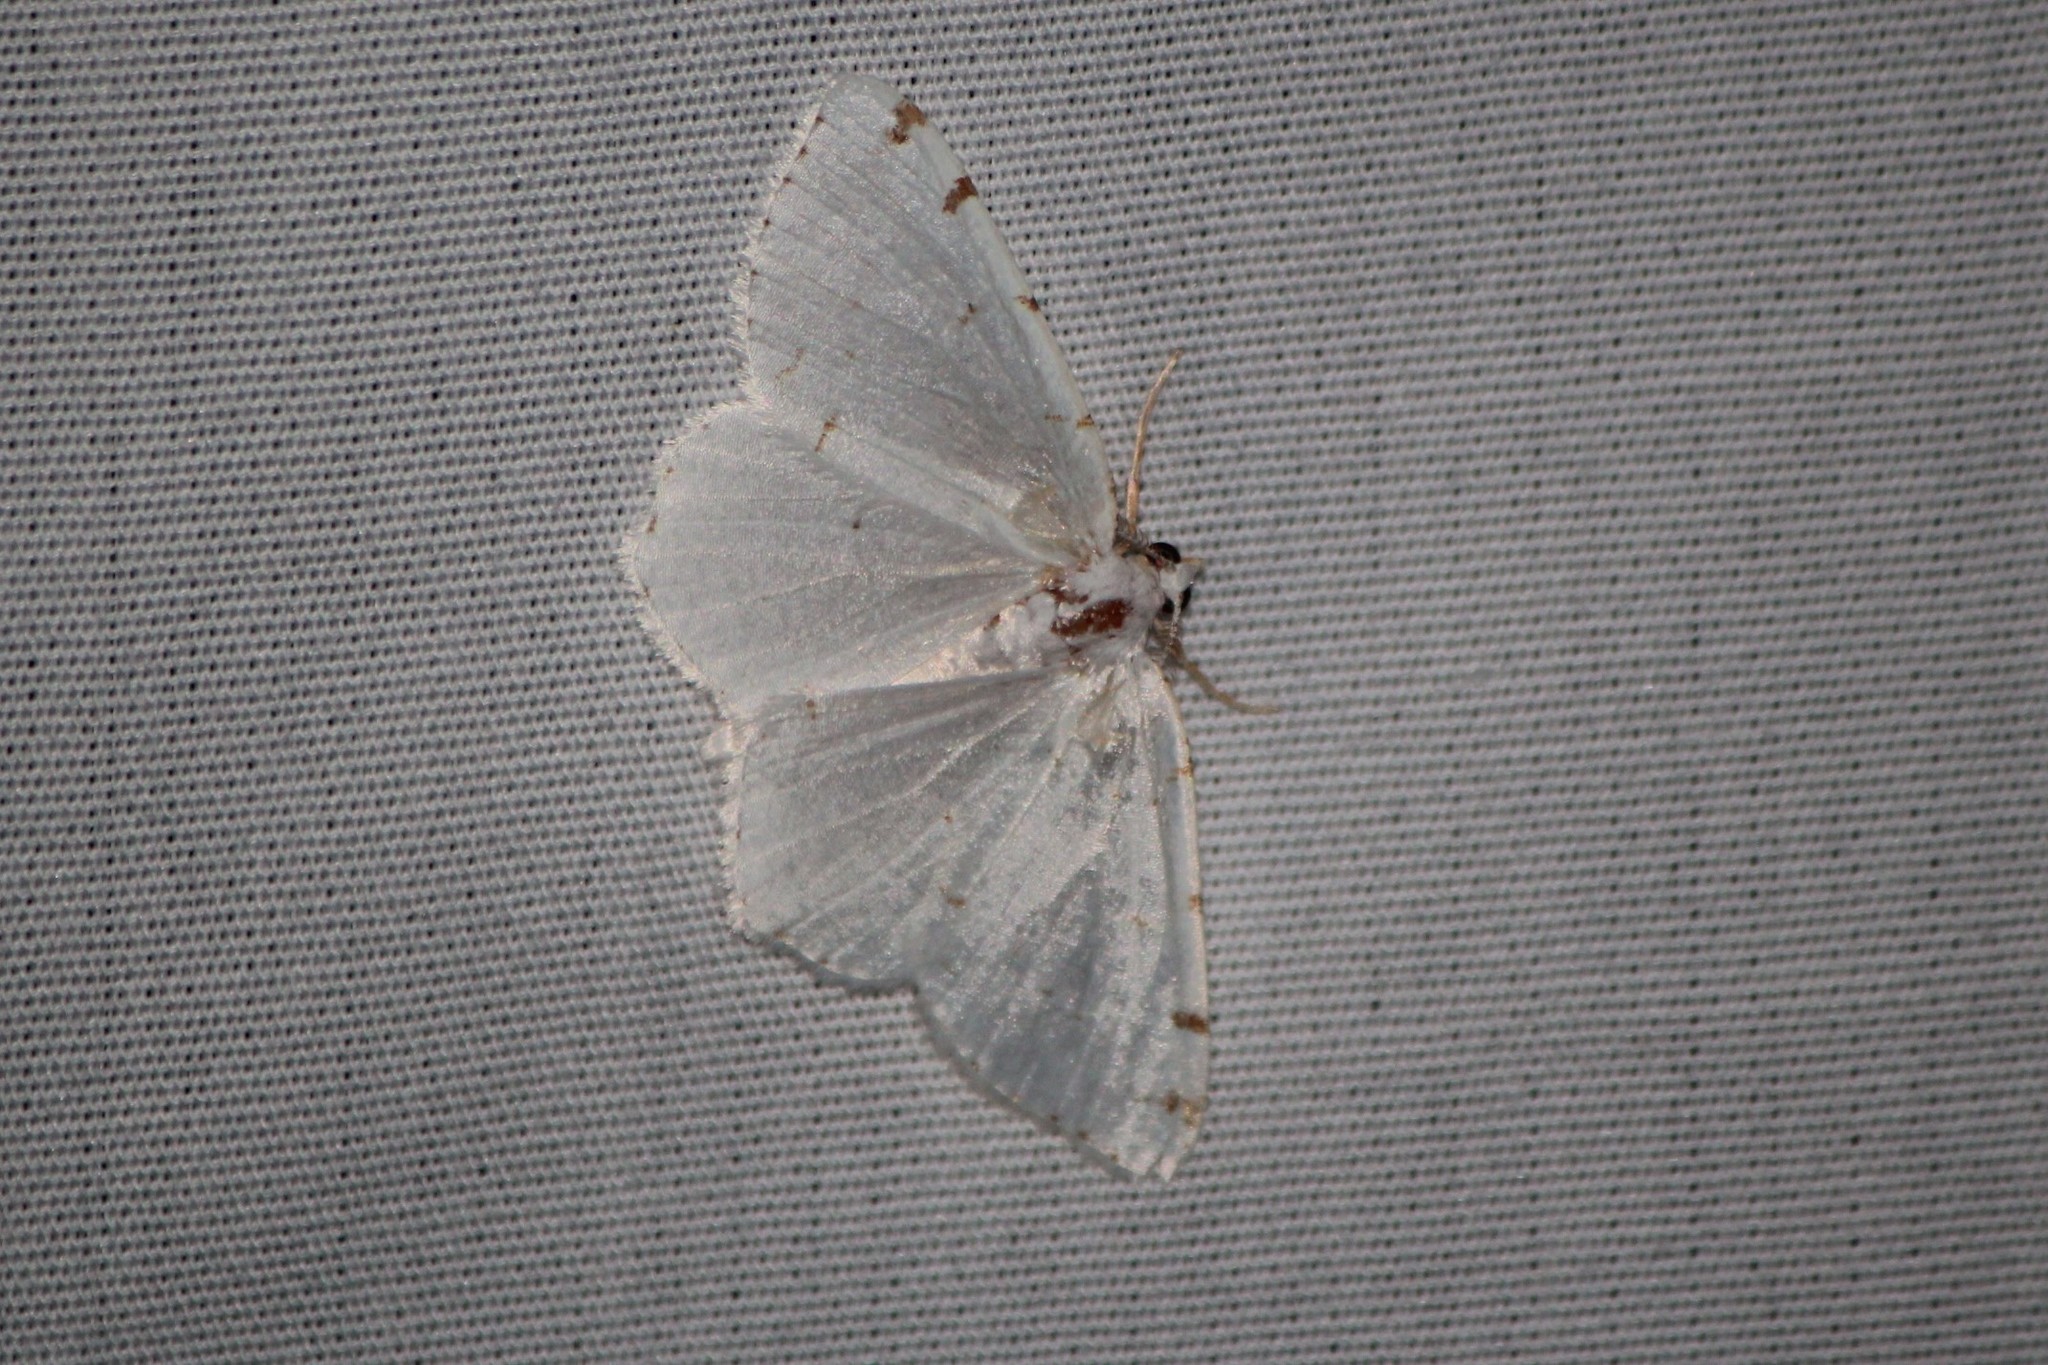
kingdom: Animalia
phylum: Arthropoda
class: Insecta
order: Lepidoptera
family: Geometridae
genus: Macaria
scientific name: Macaria pustularia
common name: Lesser maple spanworm moth
